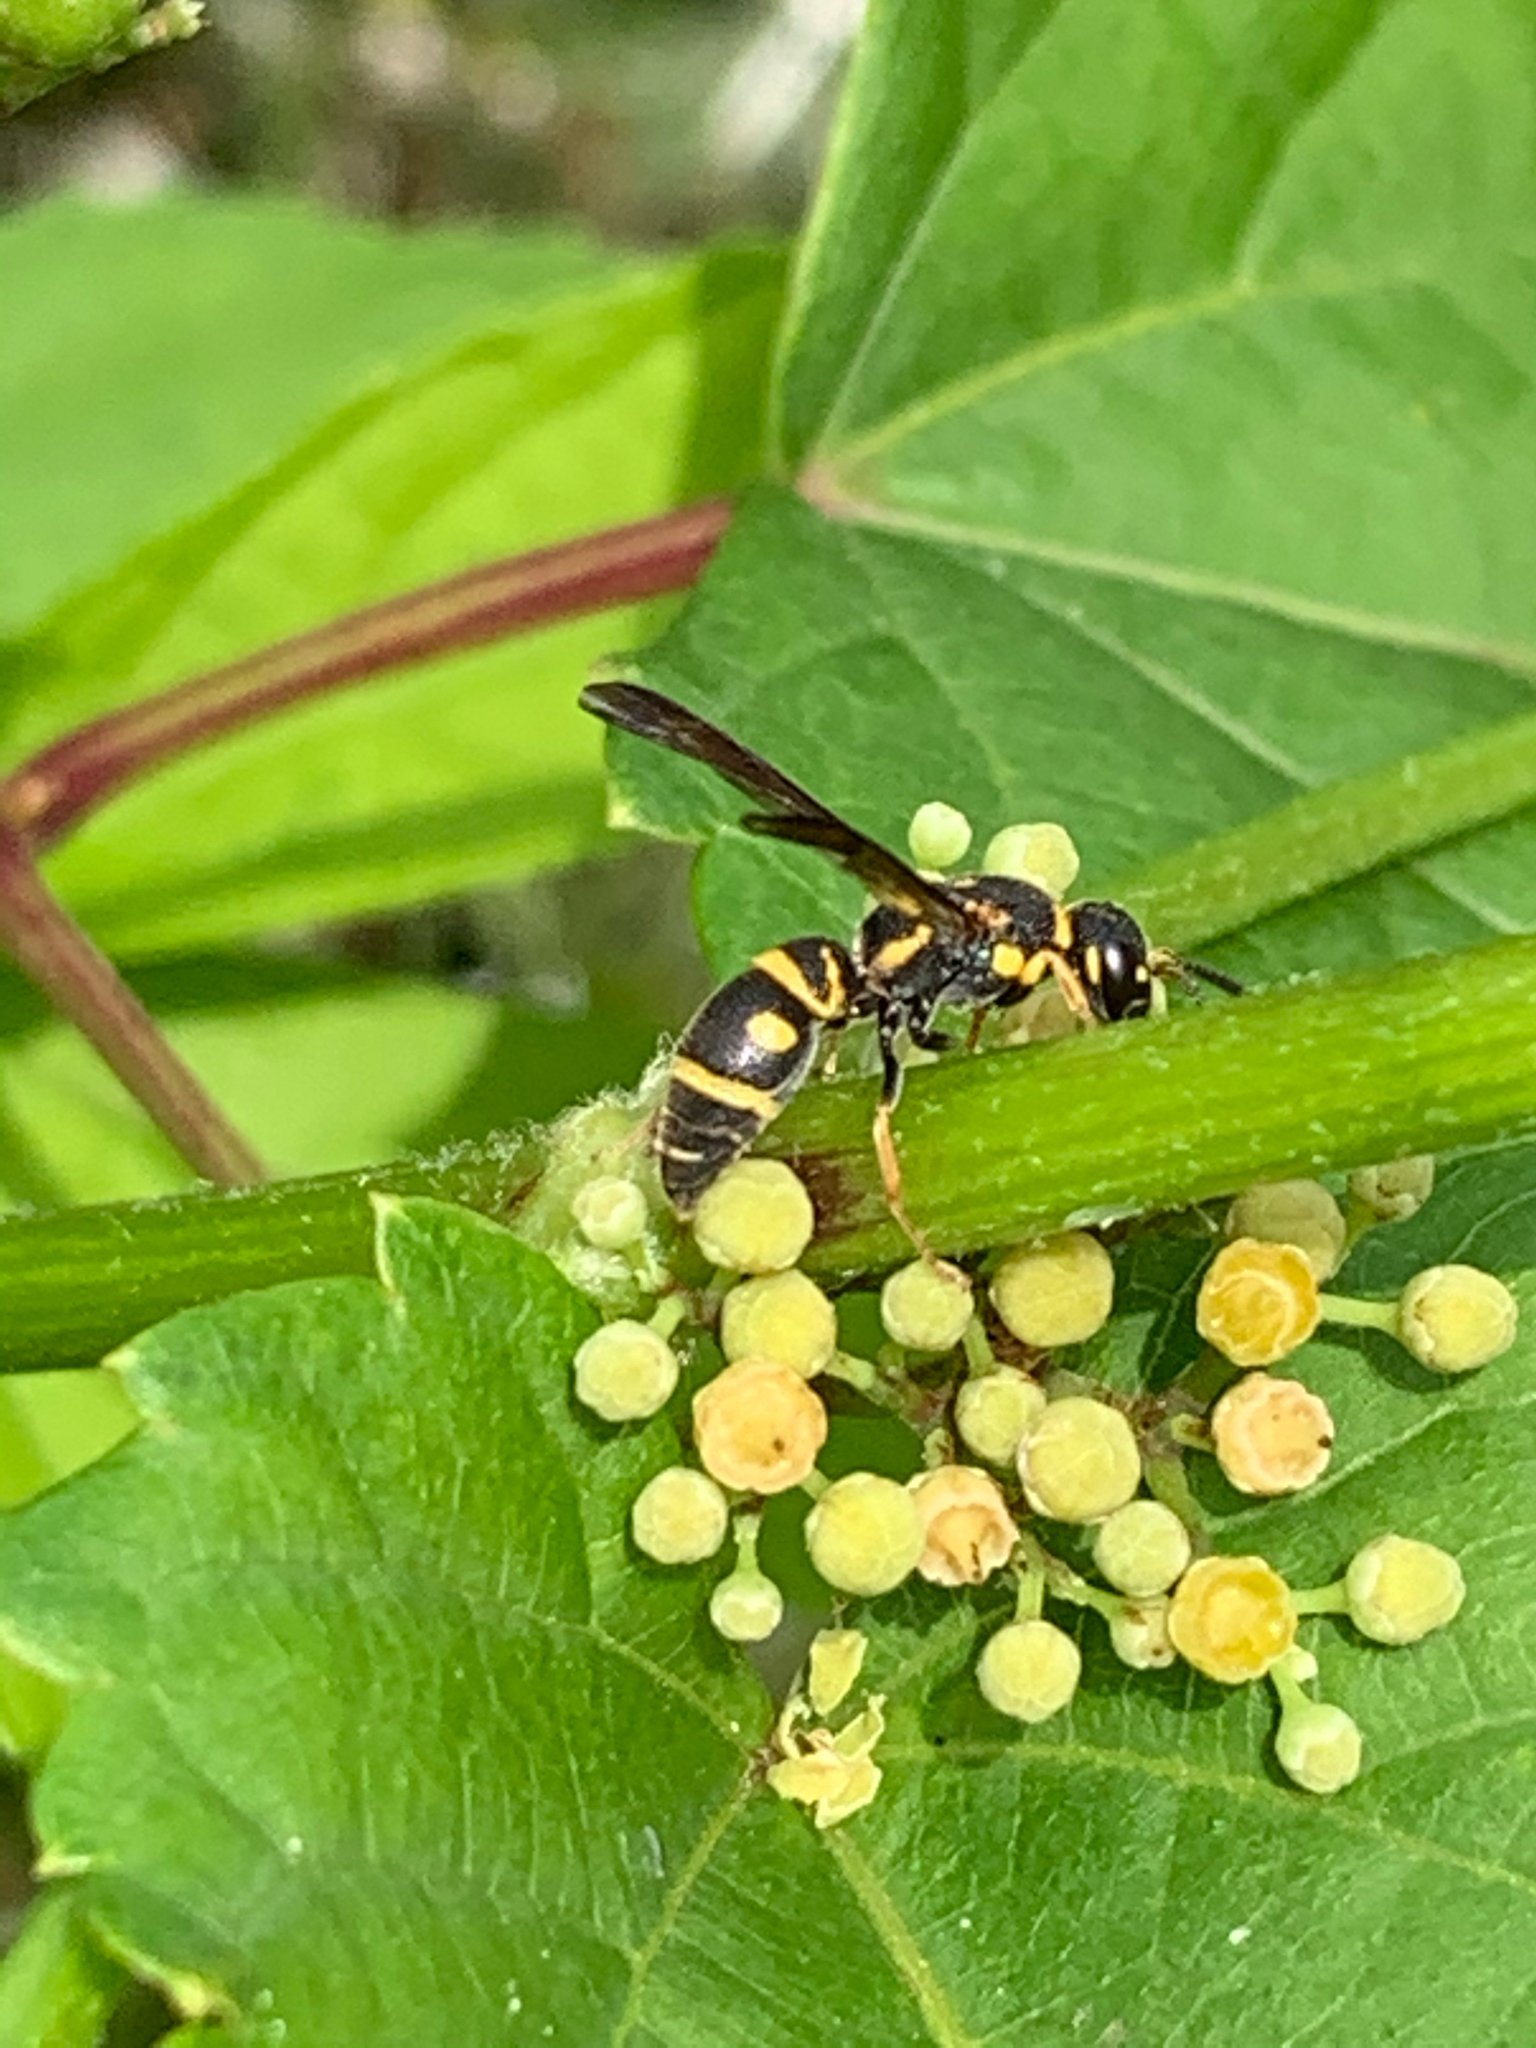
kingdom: Animalia
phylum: Arthropoda
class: Insecta
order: Hymenoptera
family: Eumenidae
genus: Parancistrocerus
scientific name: Parancistrocerus
